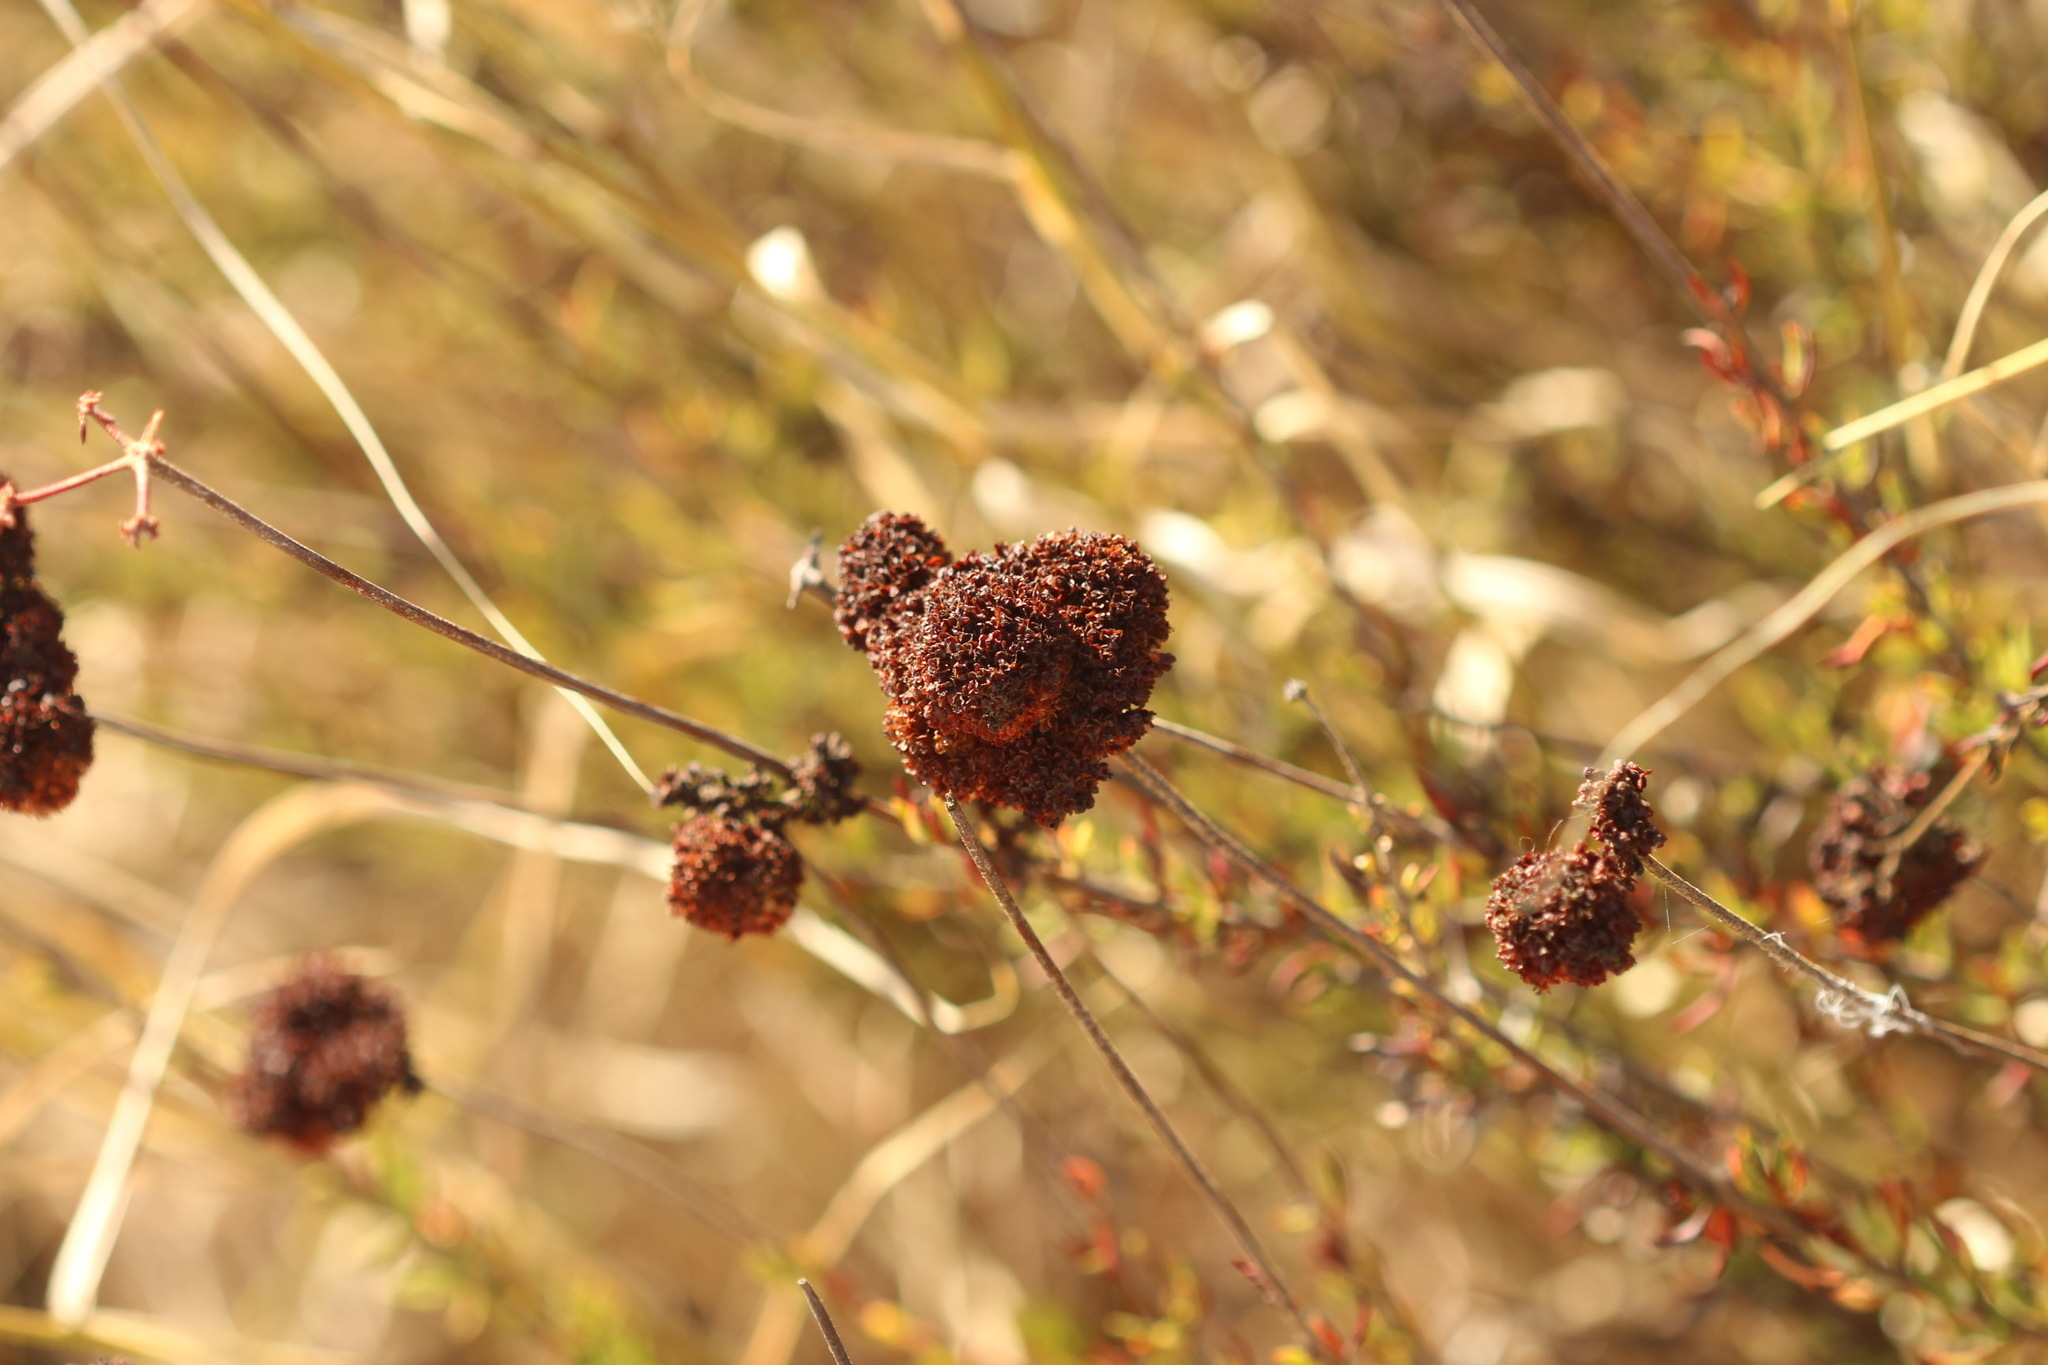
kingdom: Plantae
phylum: Tracheophyta
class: Magnoliopsida
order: Caryophyllales
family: Polygonaceae
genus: Eriogonum
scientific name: Eriogonum fasciculatum
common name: California wild buckwheat
